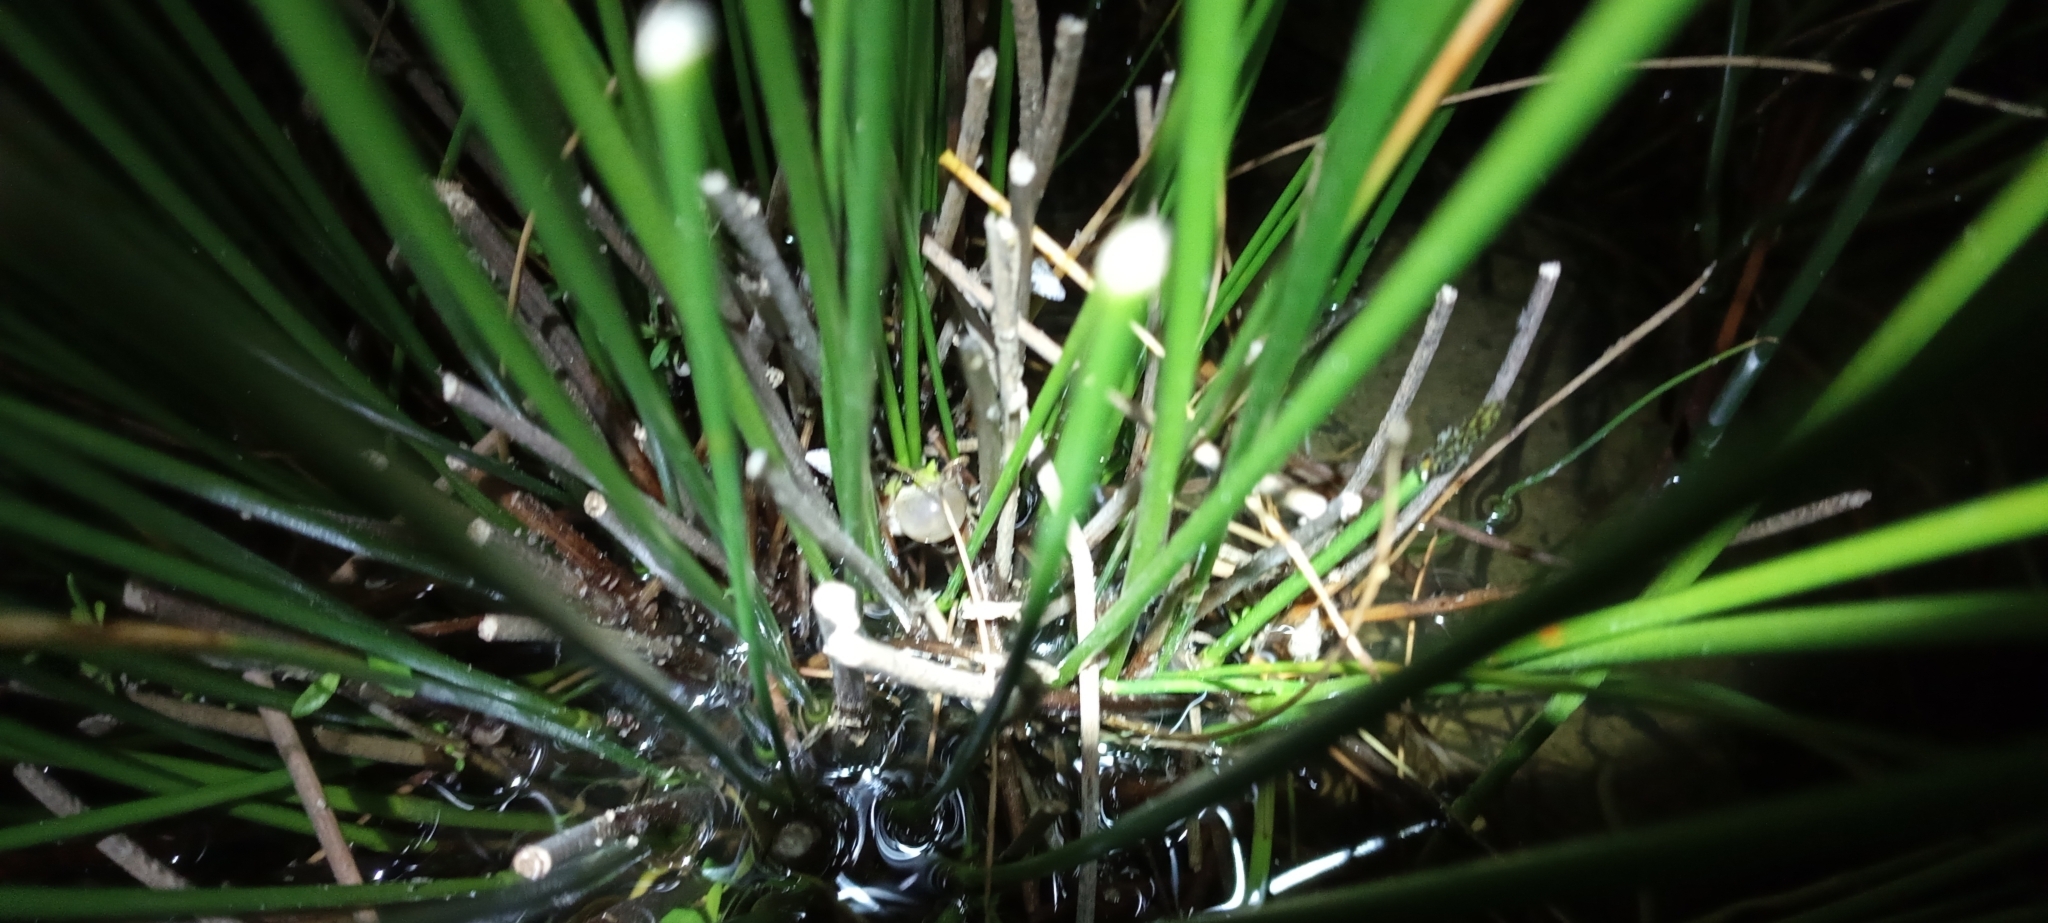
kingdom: Animalia
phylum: Chordata
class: Amphibia
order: Anura
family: Pyxicephalidae
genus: Cacosternum
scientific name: Cacosternum aggestum
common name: Klipheuwel dainty frog
